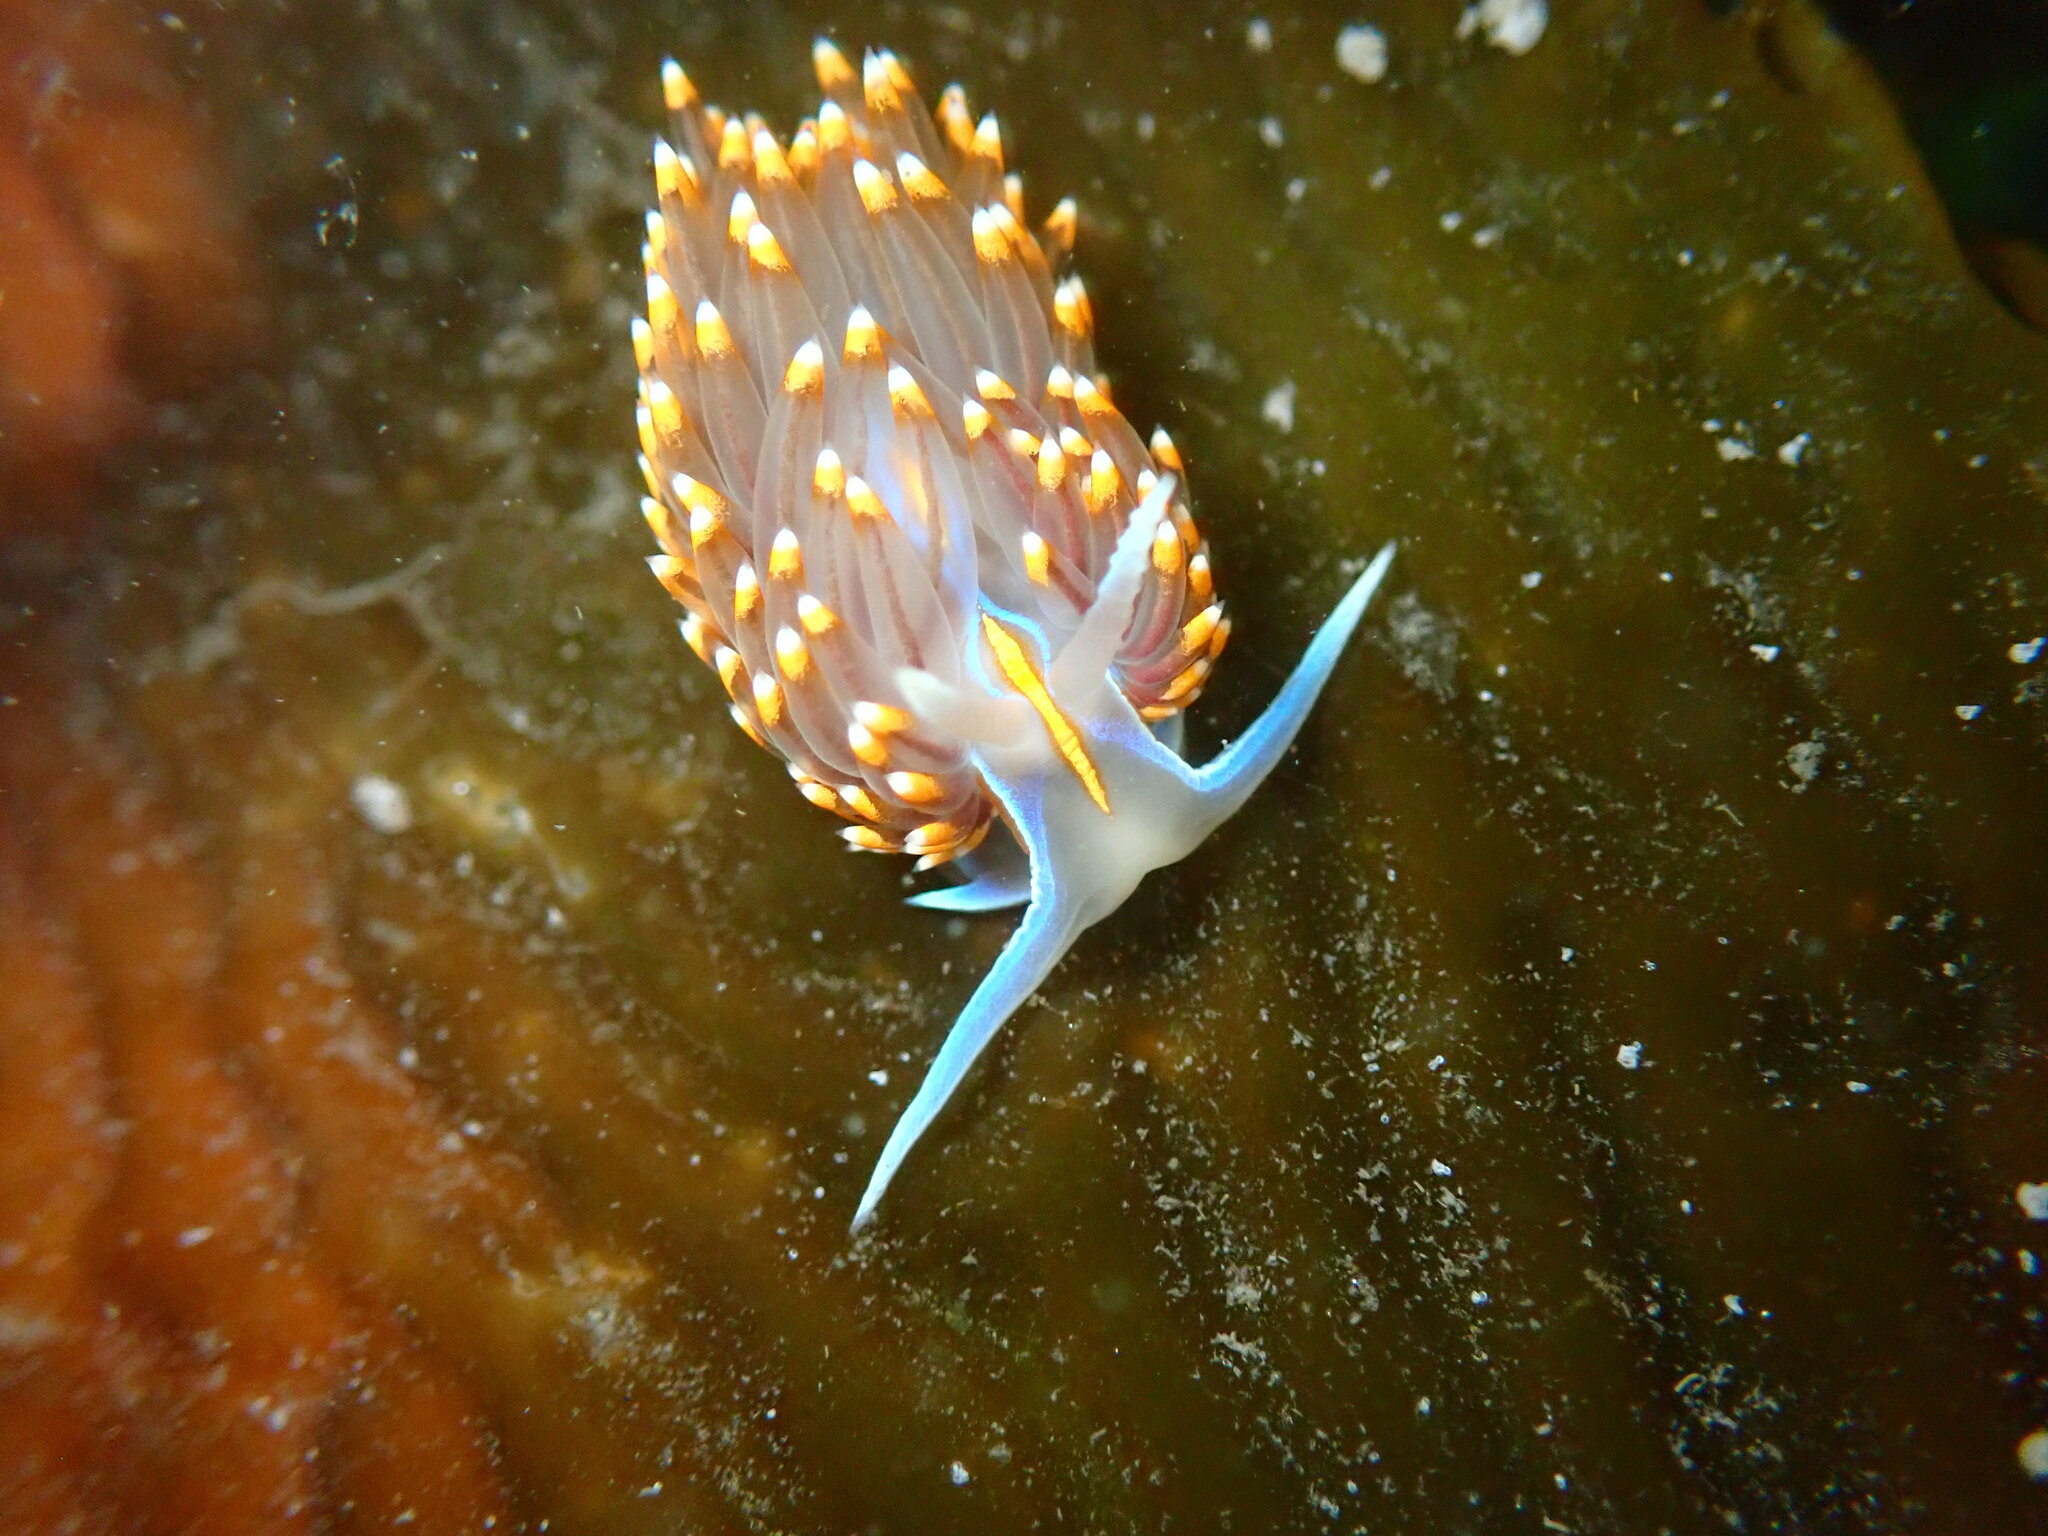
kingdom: Animalia
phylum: Mollusca
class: Gastropoda
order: Nudibranchia
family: Myrrhinidae
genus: Hermissenda
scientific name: Hermissenda opalescens
